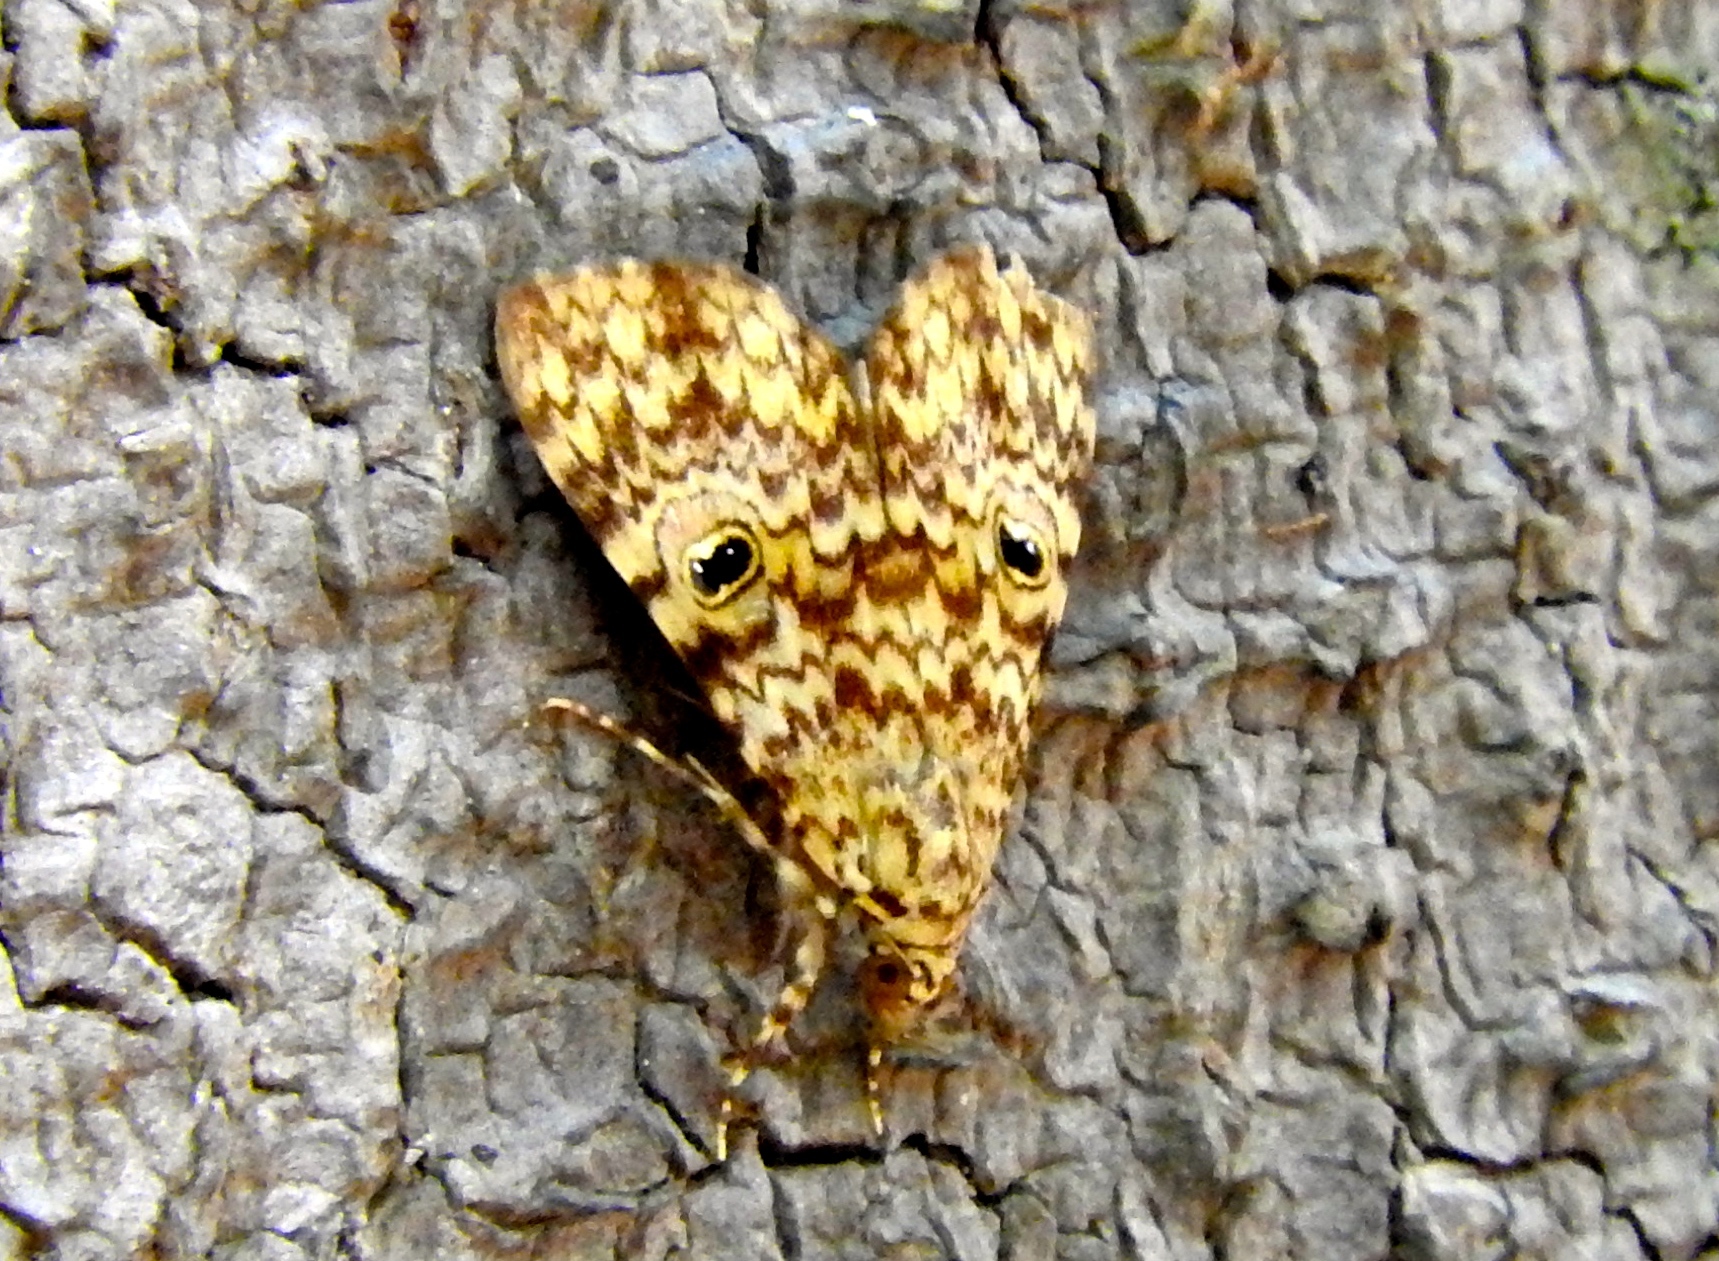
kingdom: Animalia
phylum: Arthropoda
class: Insecta
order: Lepidoptera
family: Erebidae
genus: Glenopteris
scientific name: Glenopteris oculifera
